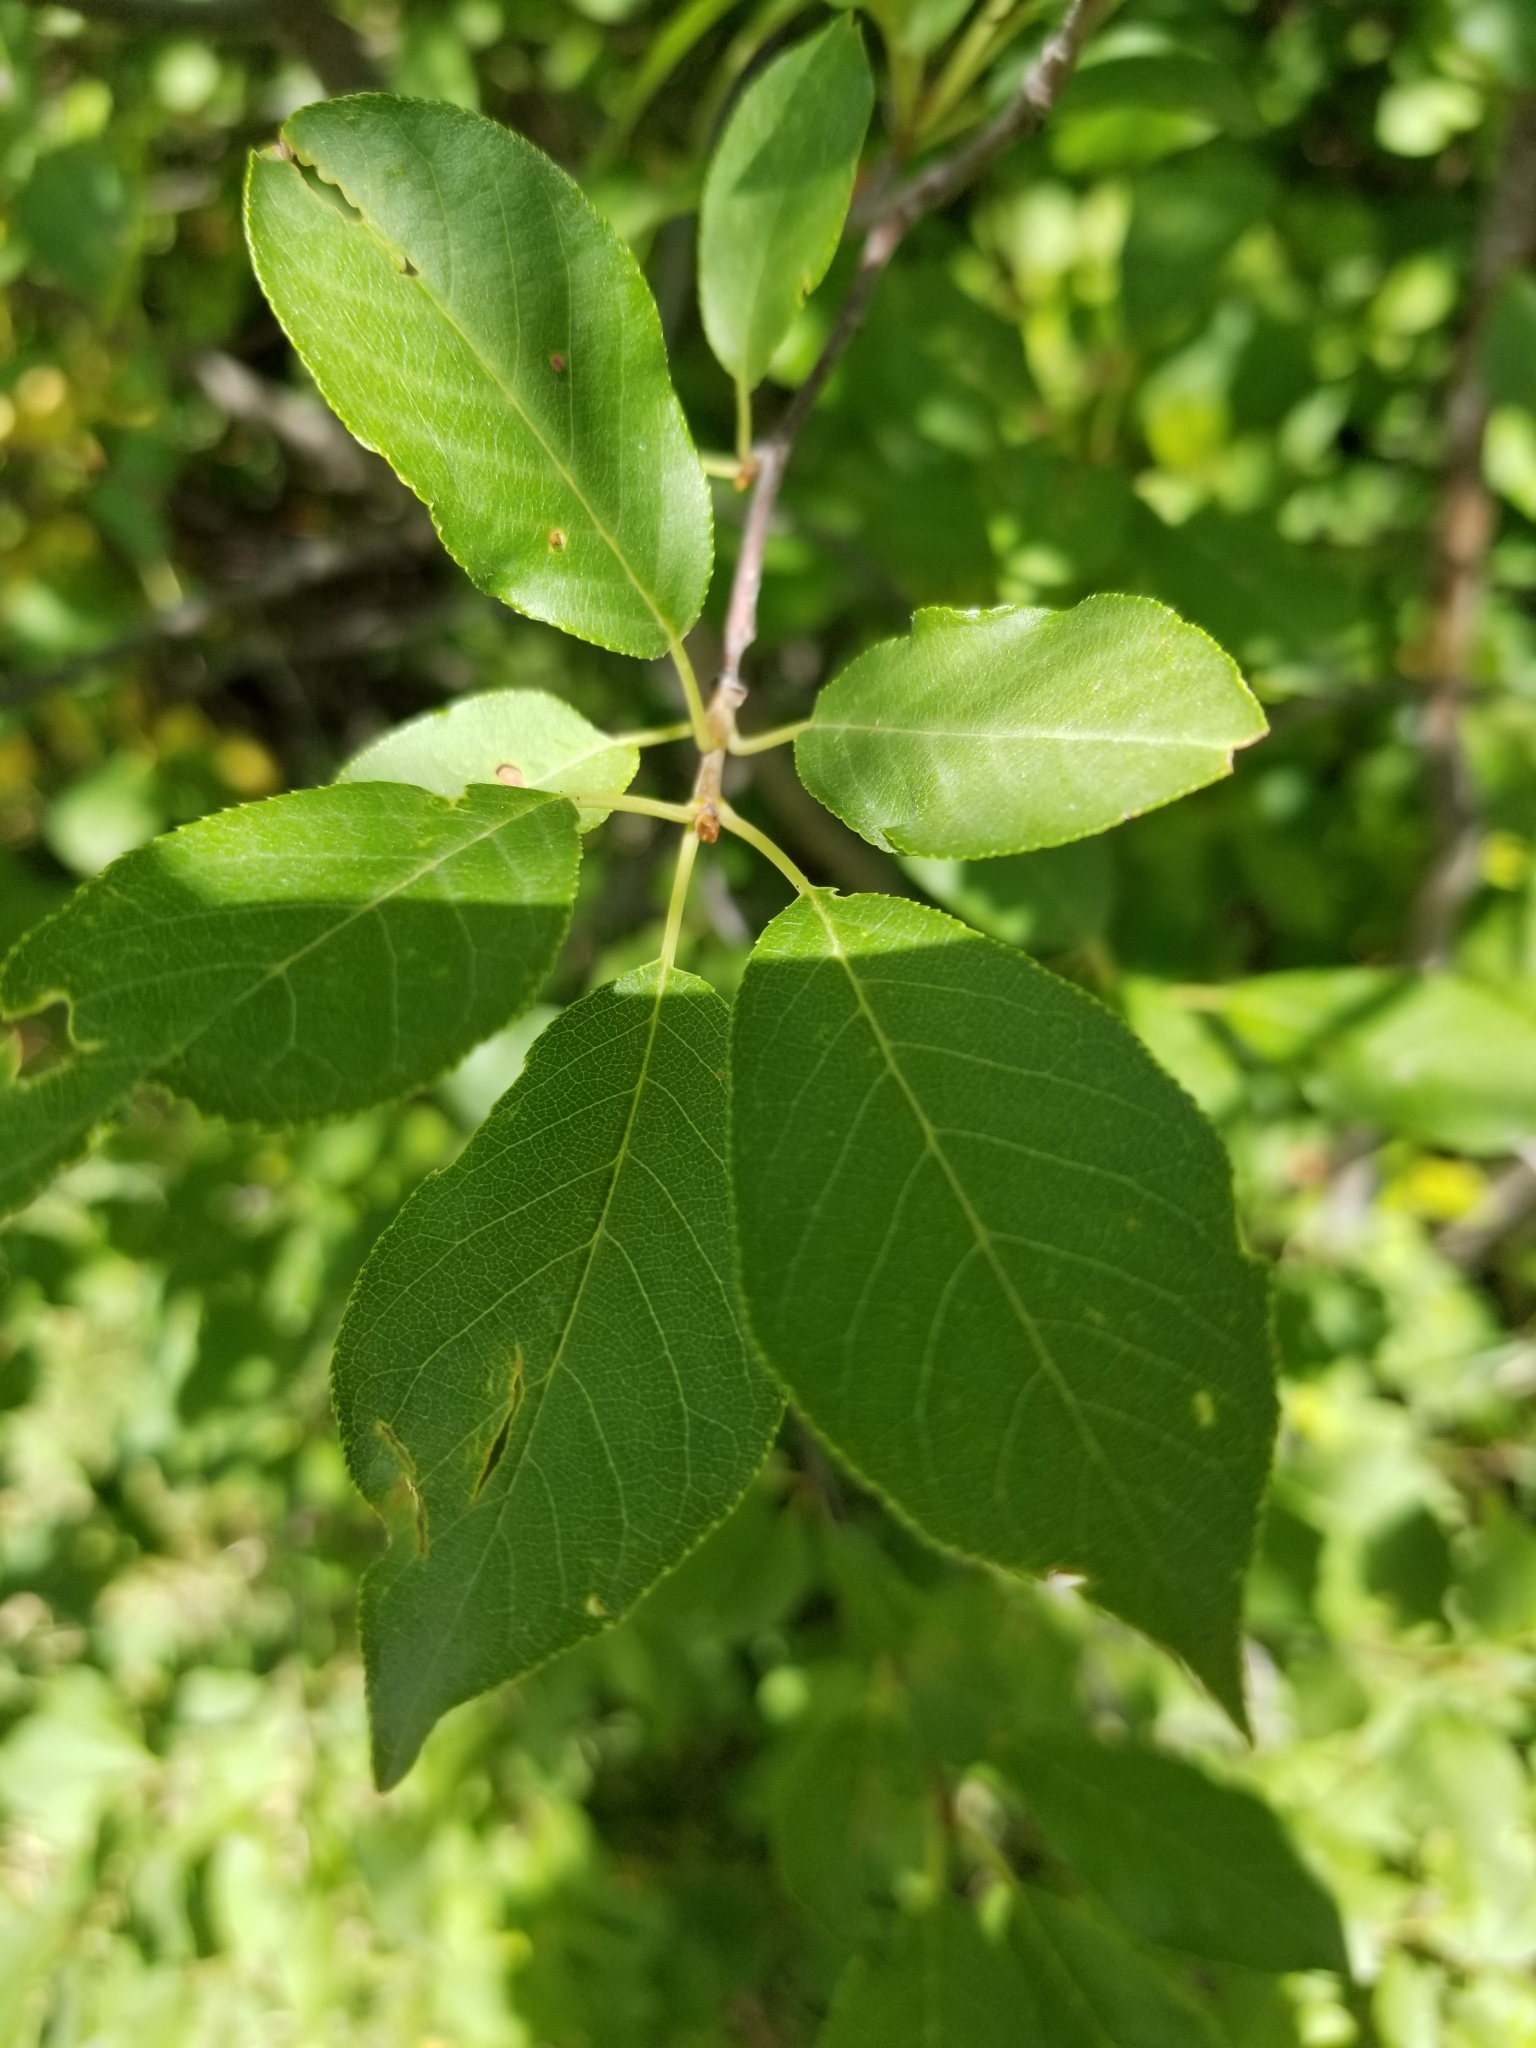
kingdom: Plantae
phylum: Tracheophyta
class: Magnoliopsida
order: Rosales
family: Rosaceae
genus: Prunus
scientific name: Prunus virginiana
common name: Chokecherry
